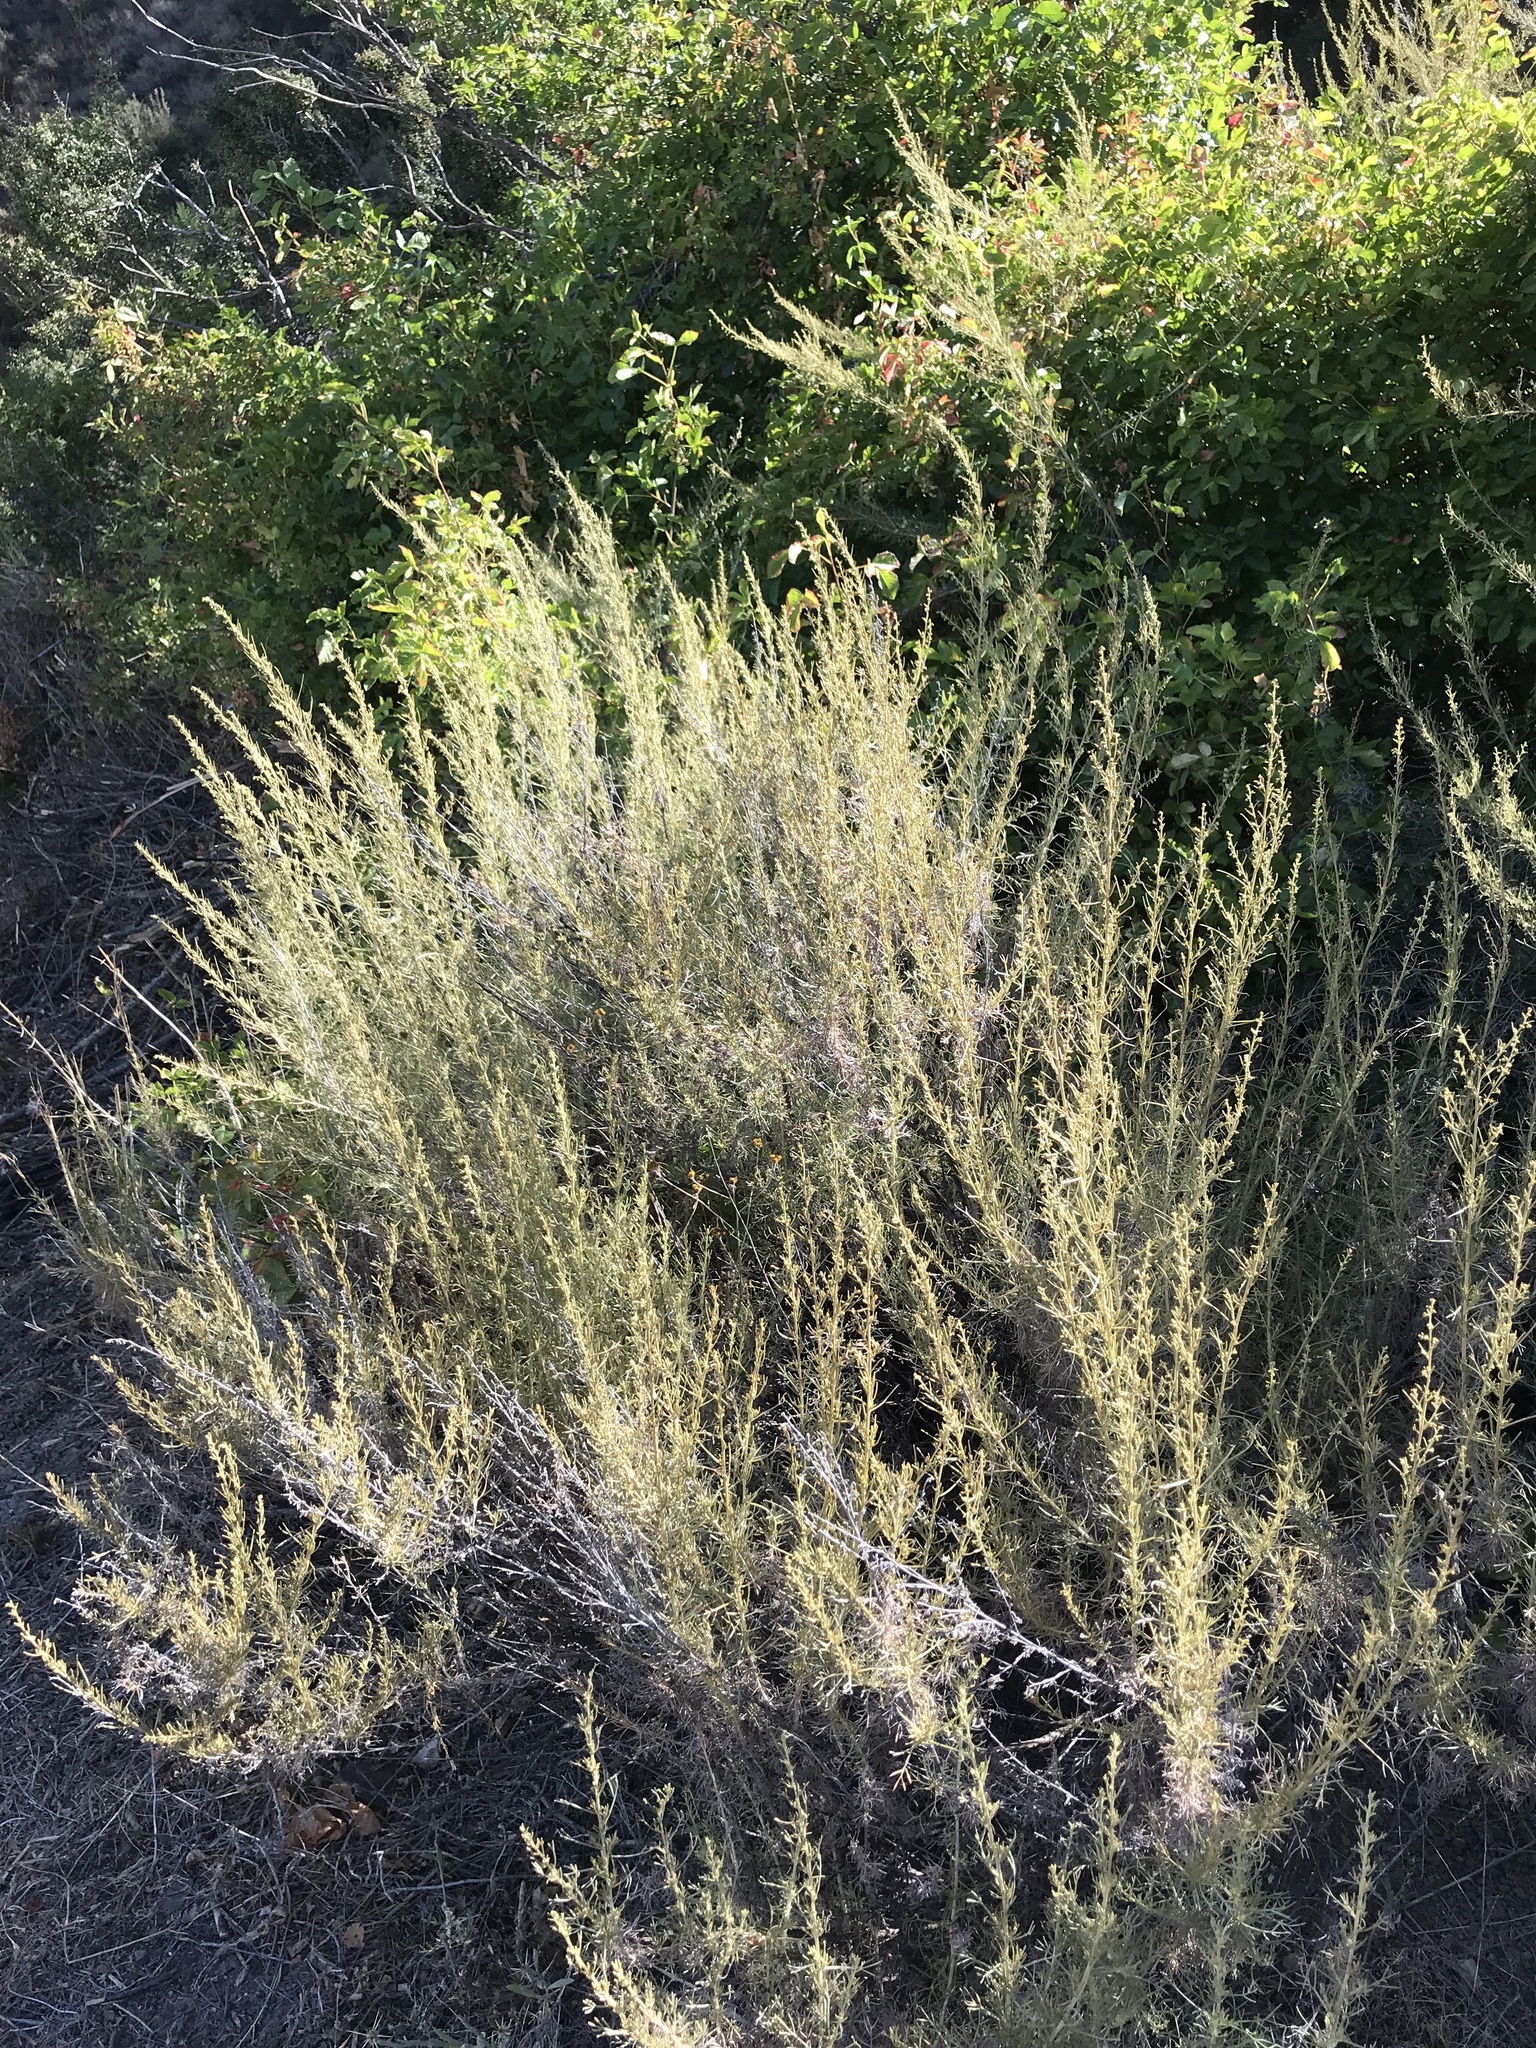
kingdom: Plantae
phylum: Tracheophyta
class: Magnoliopsida
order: Asterales
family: Asteraceae
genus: Artemisia
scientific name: Artemisia californica
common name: California sagebrush
